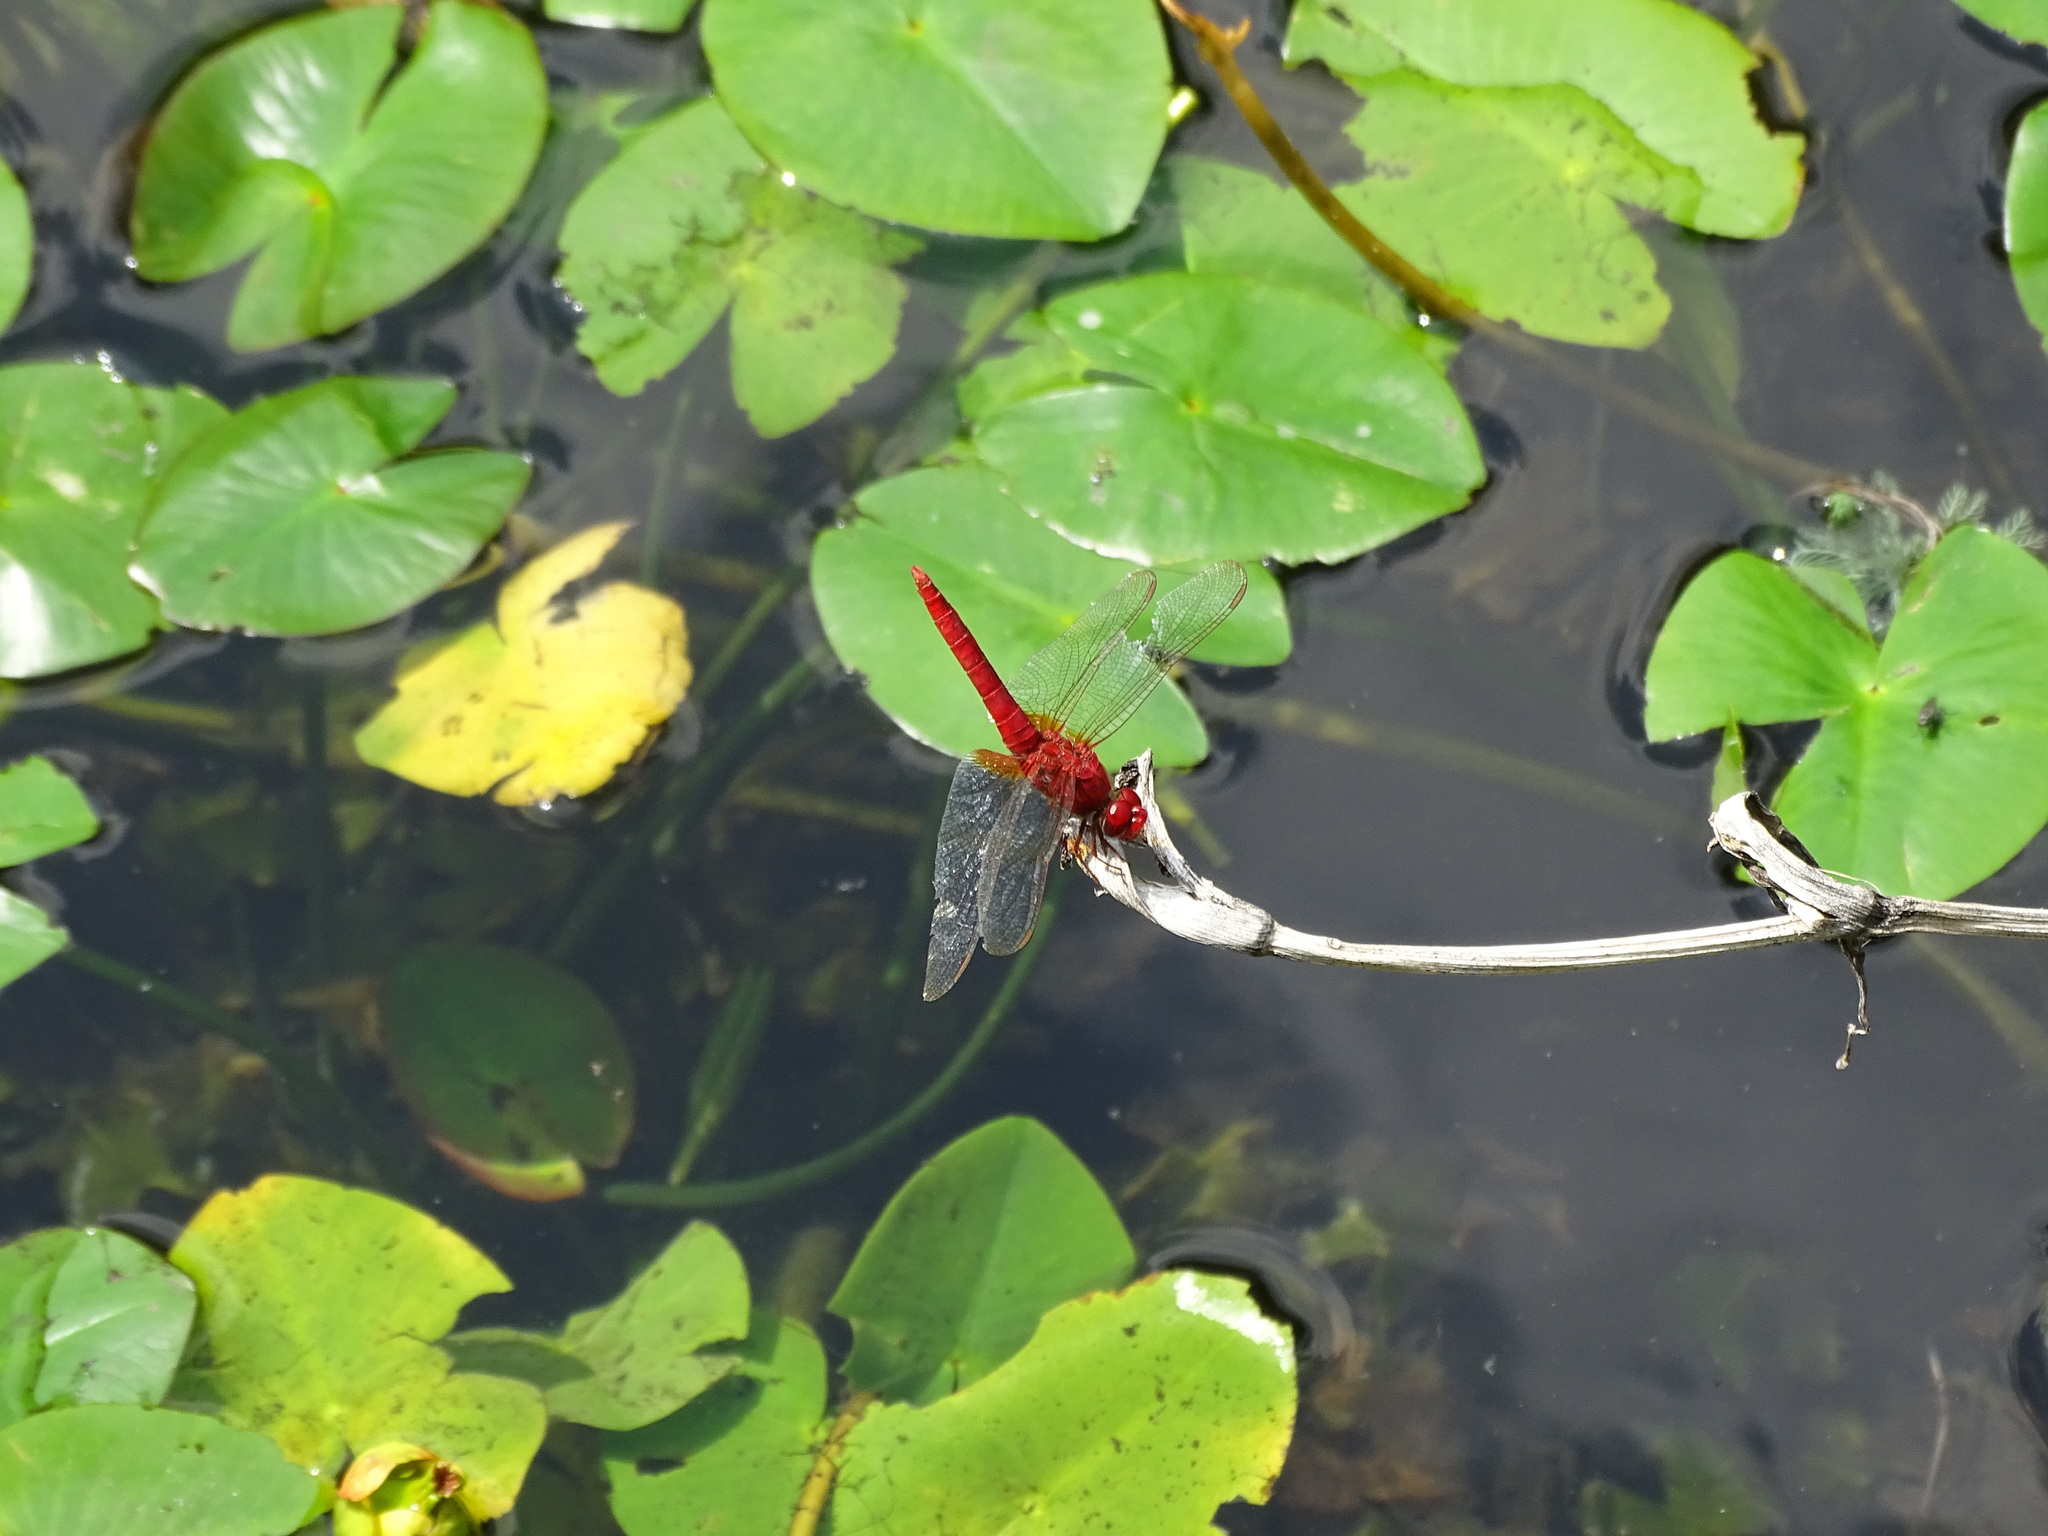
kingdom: Animalia
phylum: Arthropoda
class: Insecta
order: Odonata
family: Libellulidae
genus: Crocothemis
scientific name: Crocothemis servilia
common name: Scarlet skimmer
